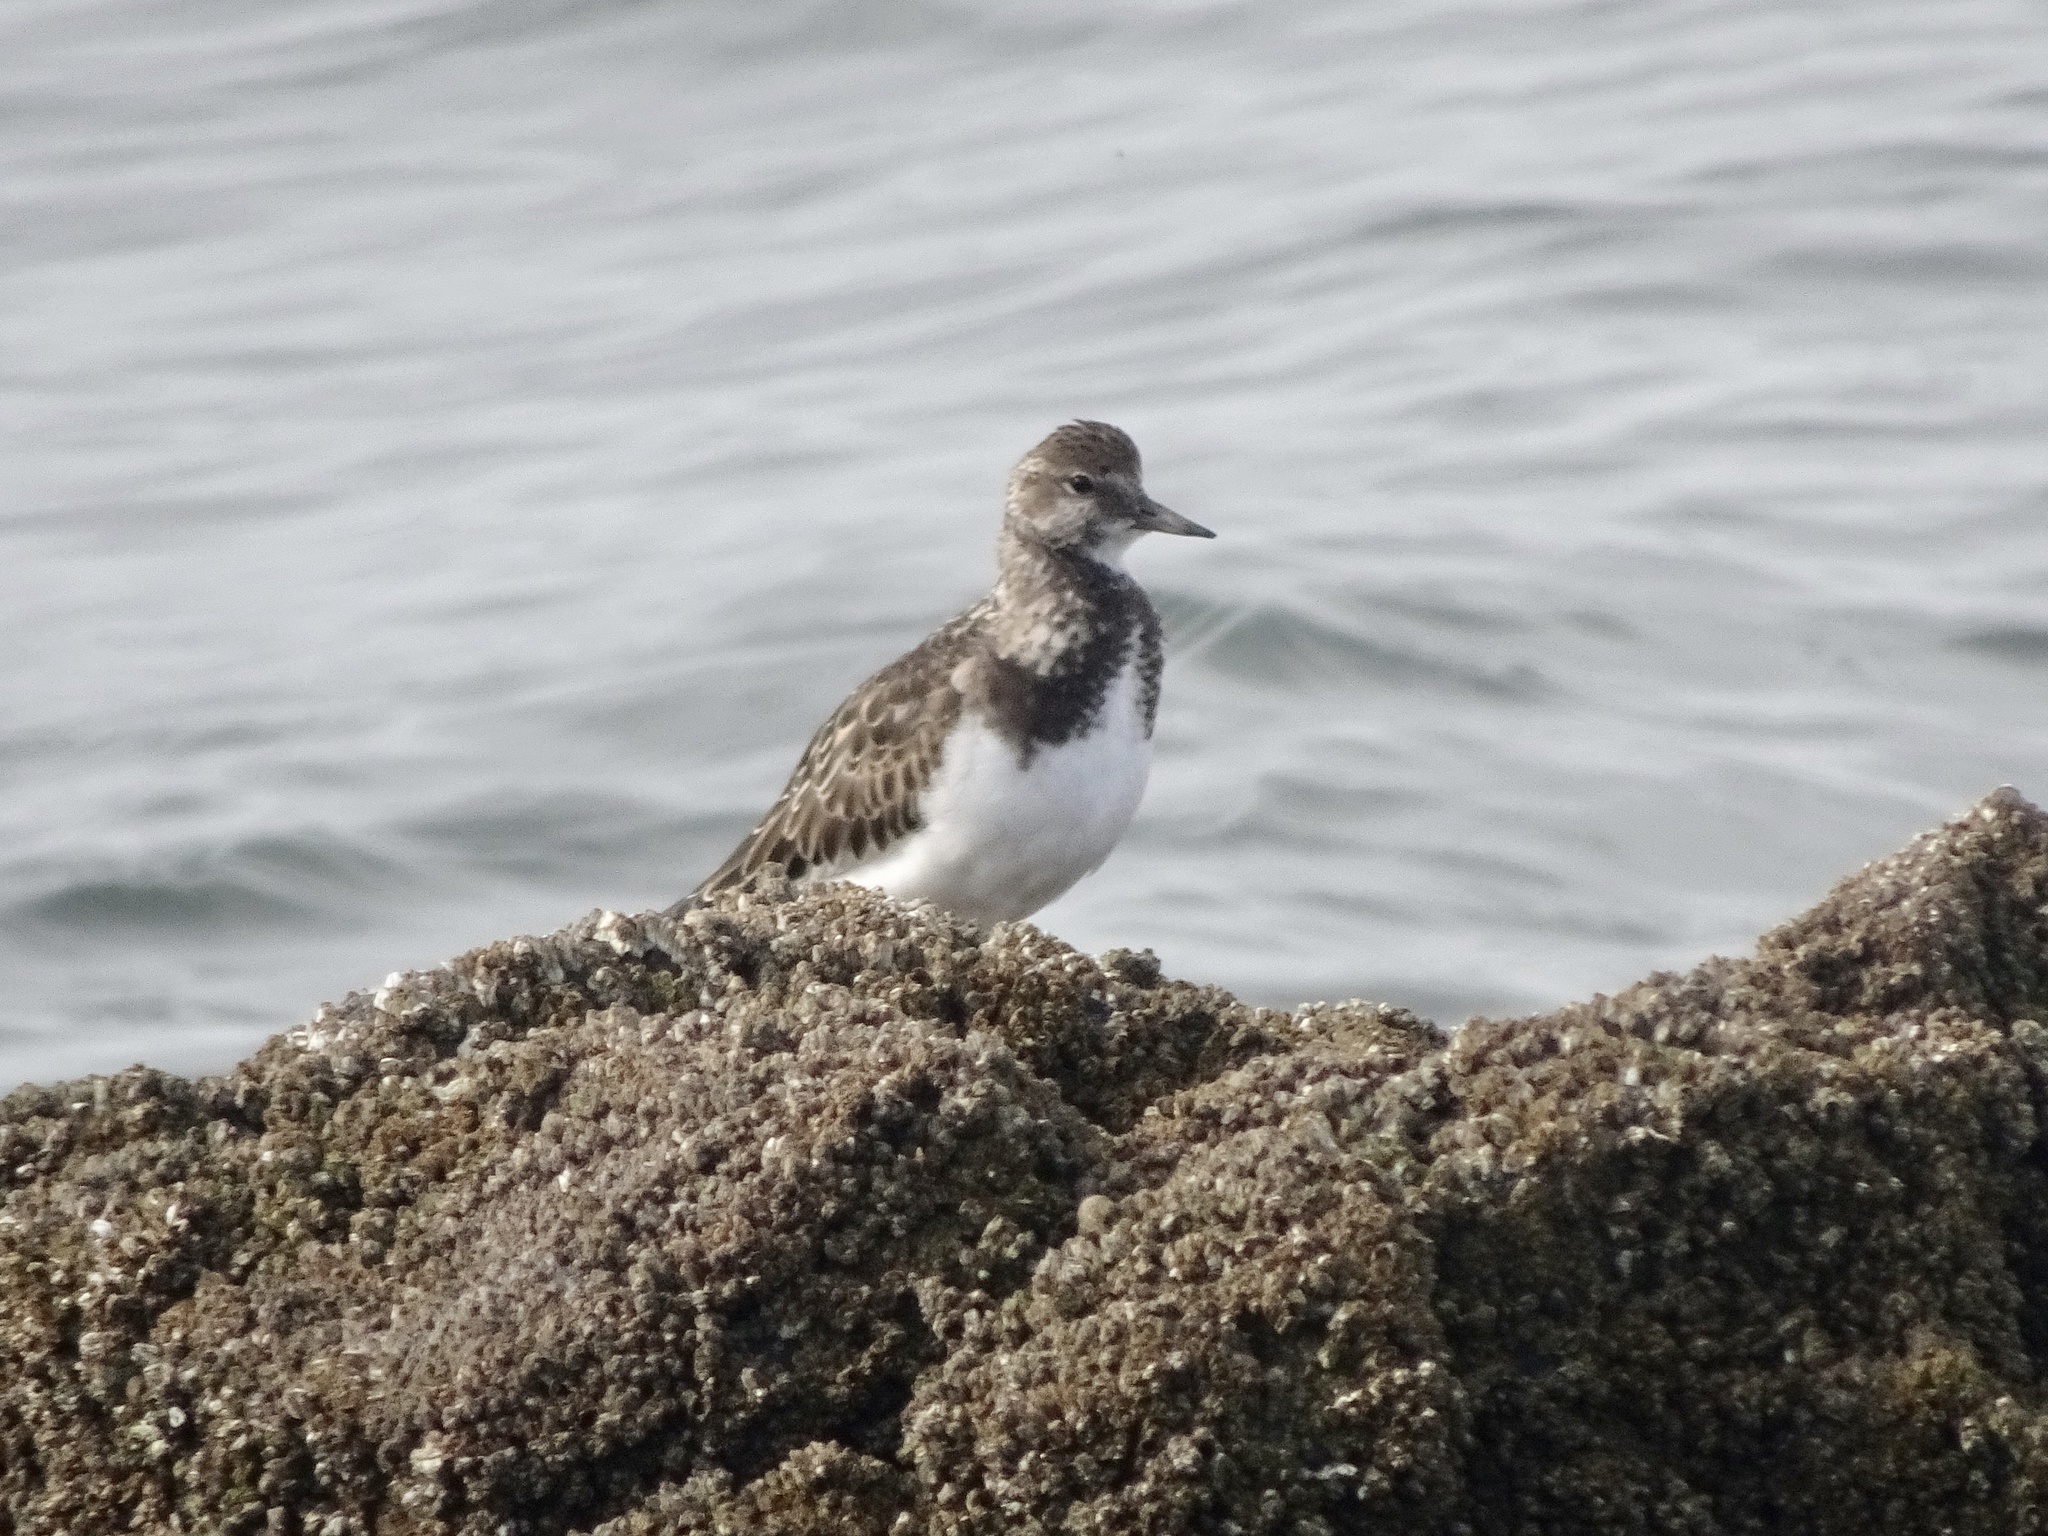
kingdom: Animalia
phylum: Chordata
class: Aves
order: Charadriiformes
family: Scolopacidae
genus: Arenaria
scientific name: Arenaria interpres
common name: Ruddy turnstone
